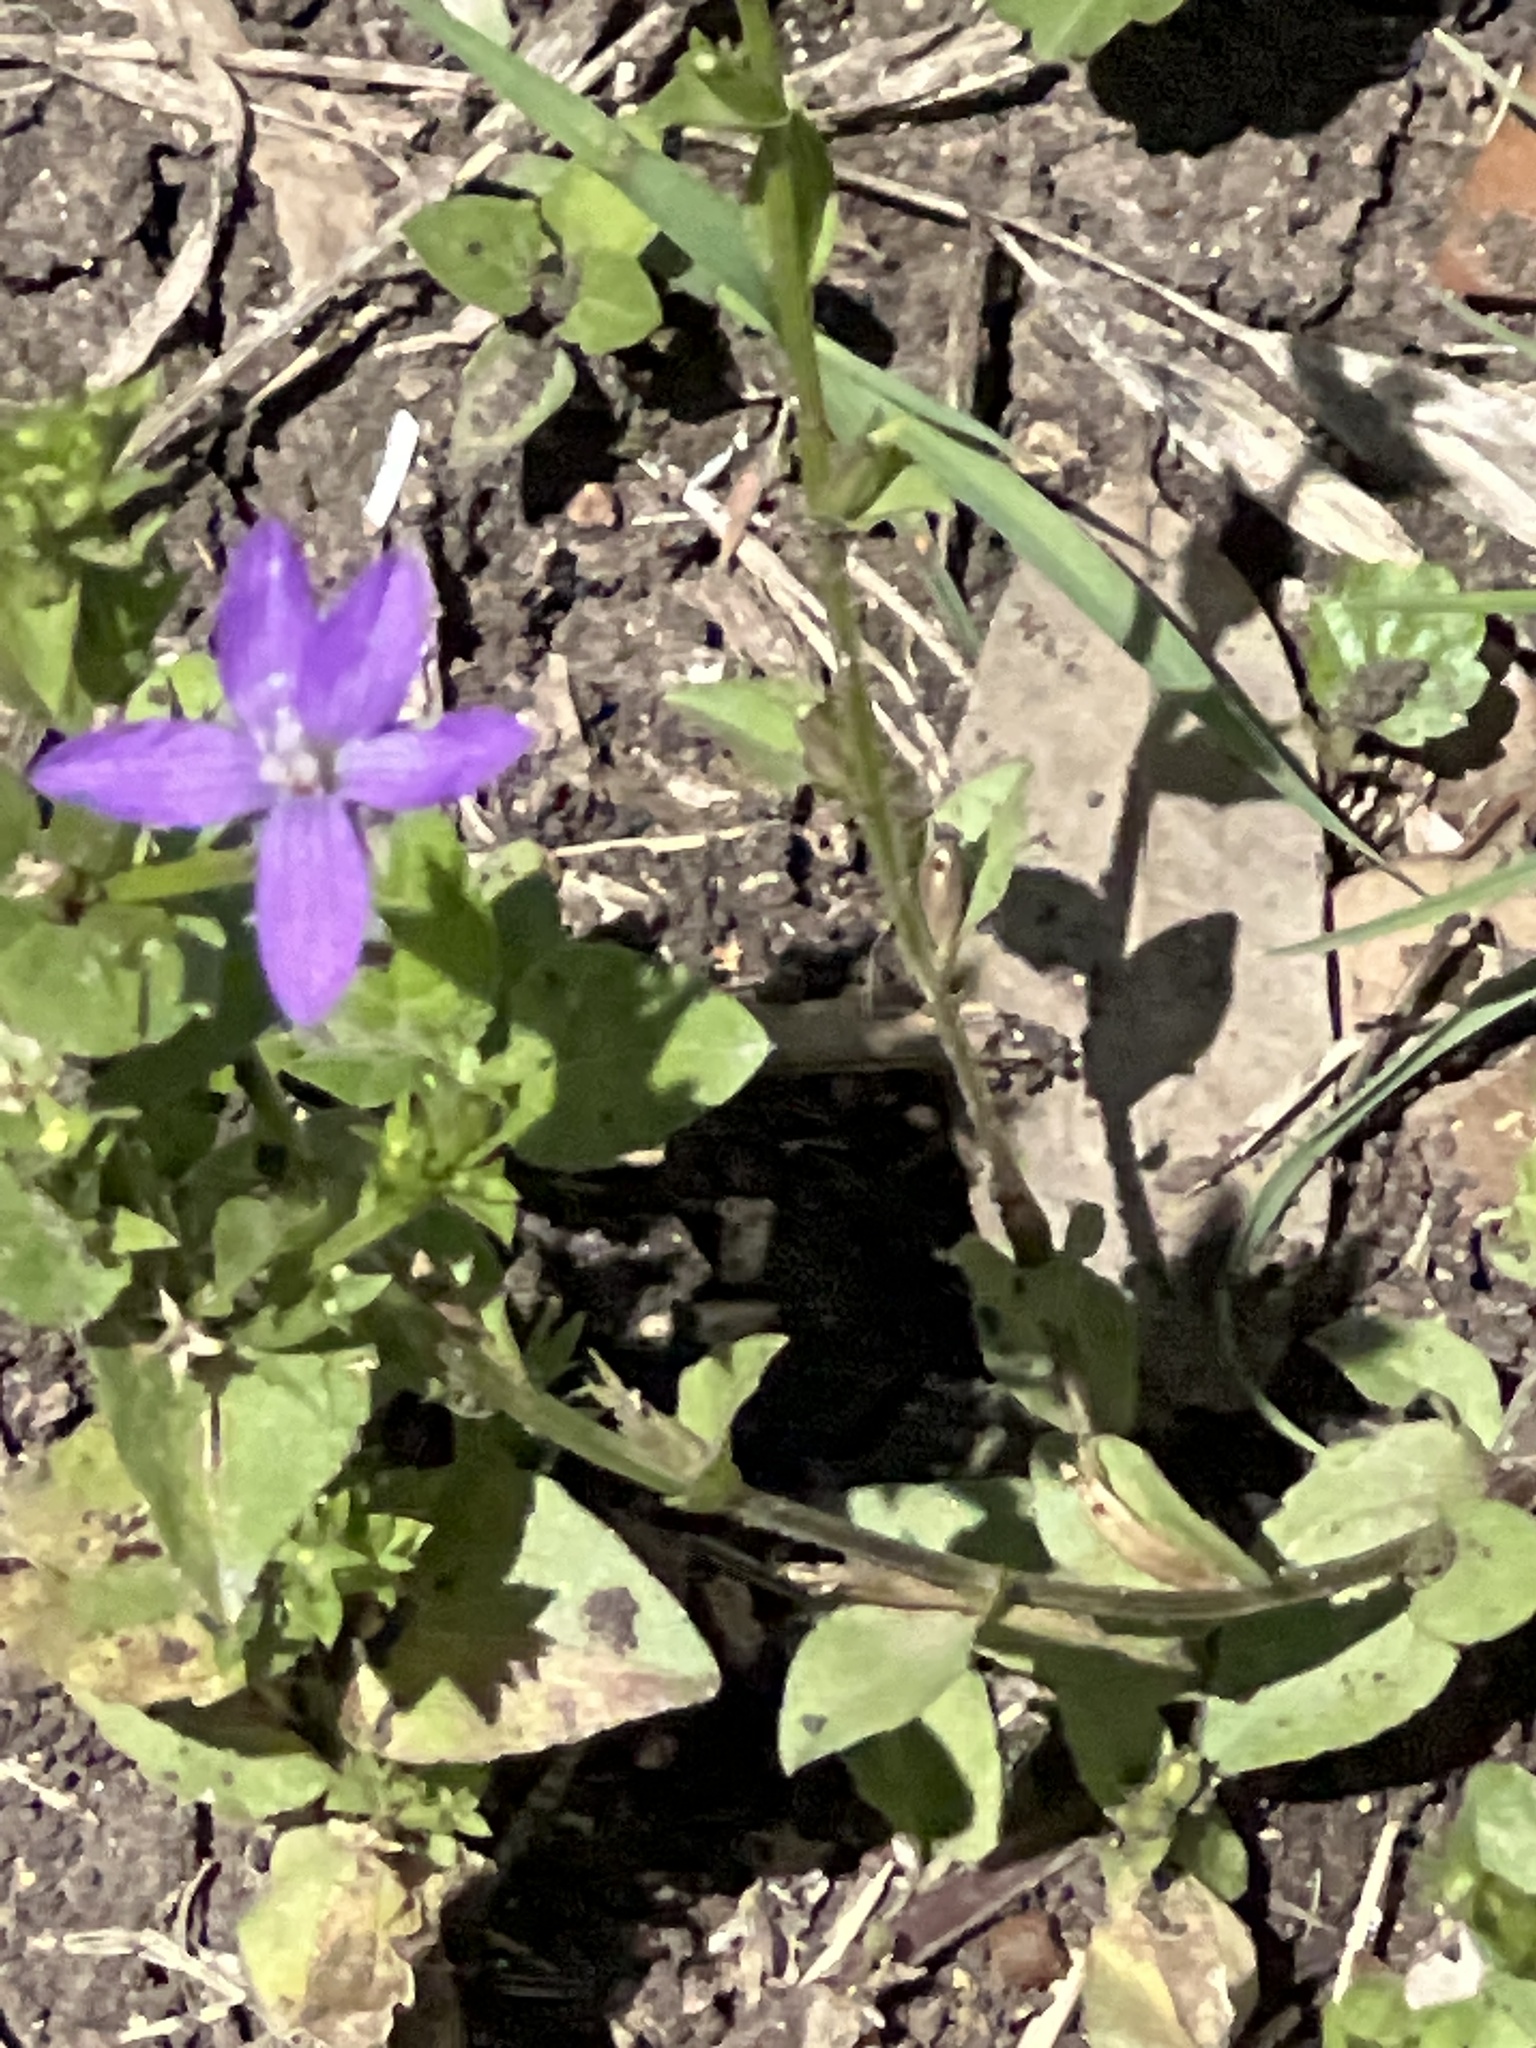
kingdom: Plantae
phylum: Tracheophyta
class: Magnoliopsida
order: Asterales
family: Campanulaceae
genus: Triodanis
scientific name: Triodanis biflora
